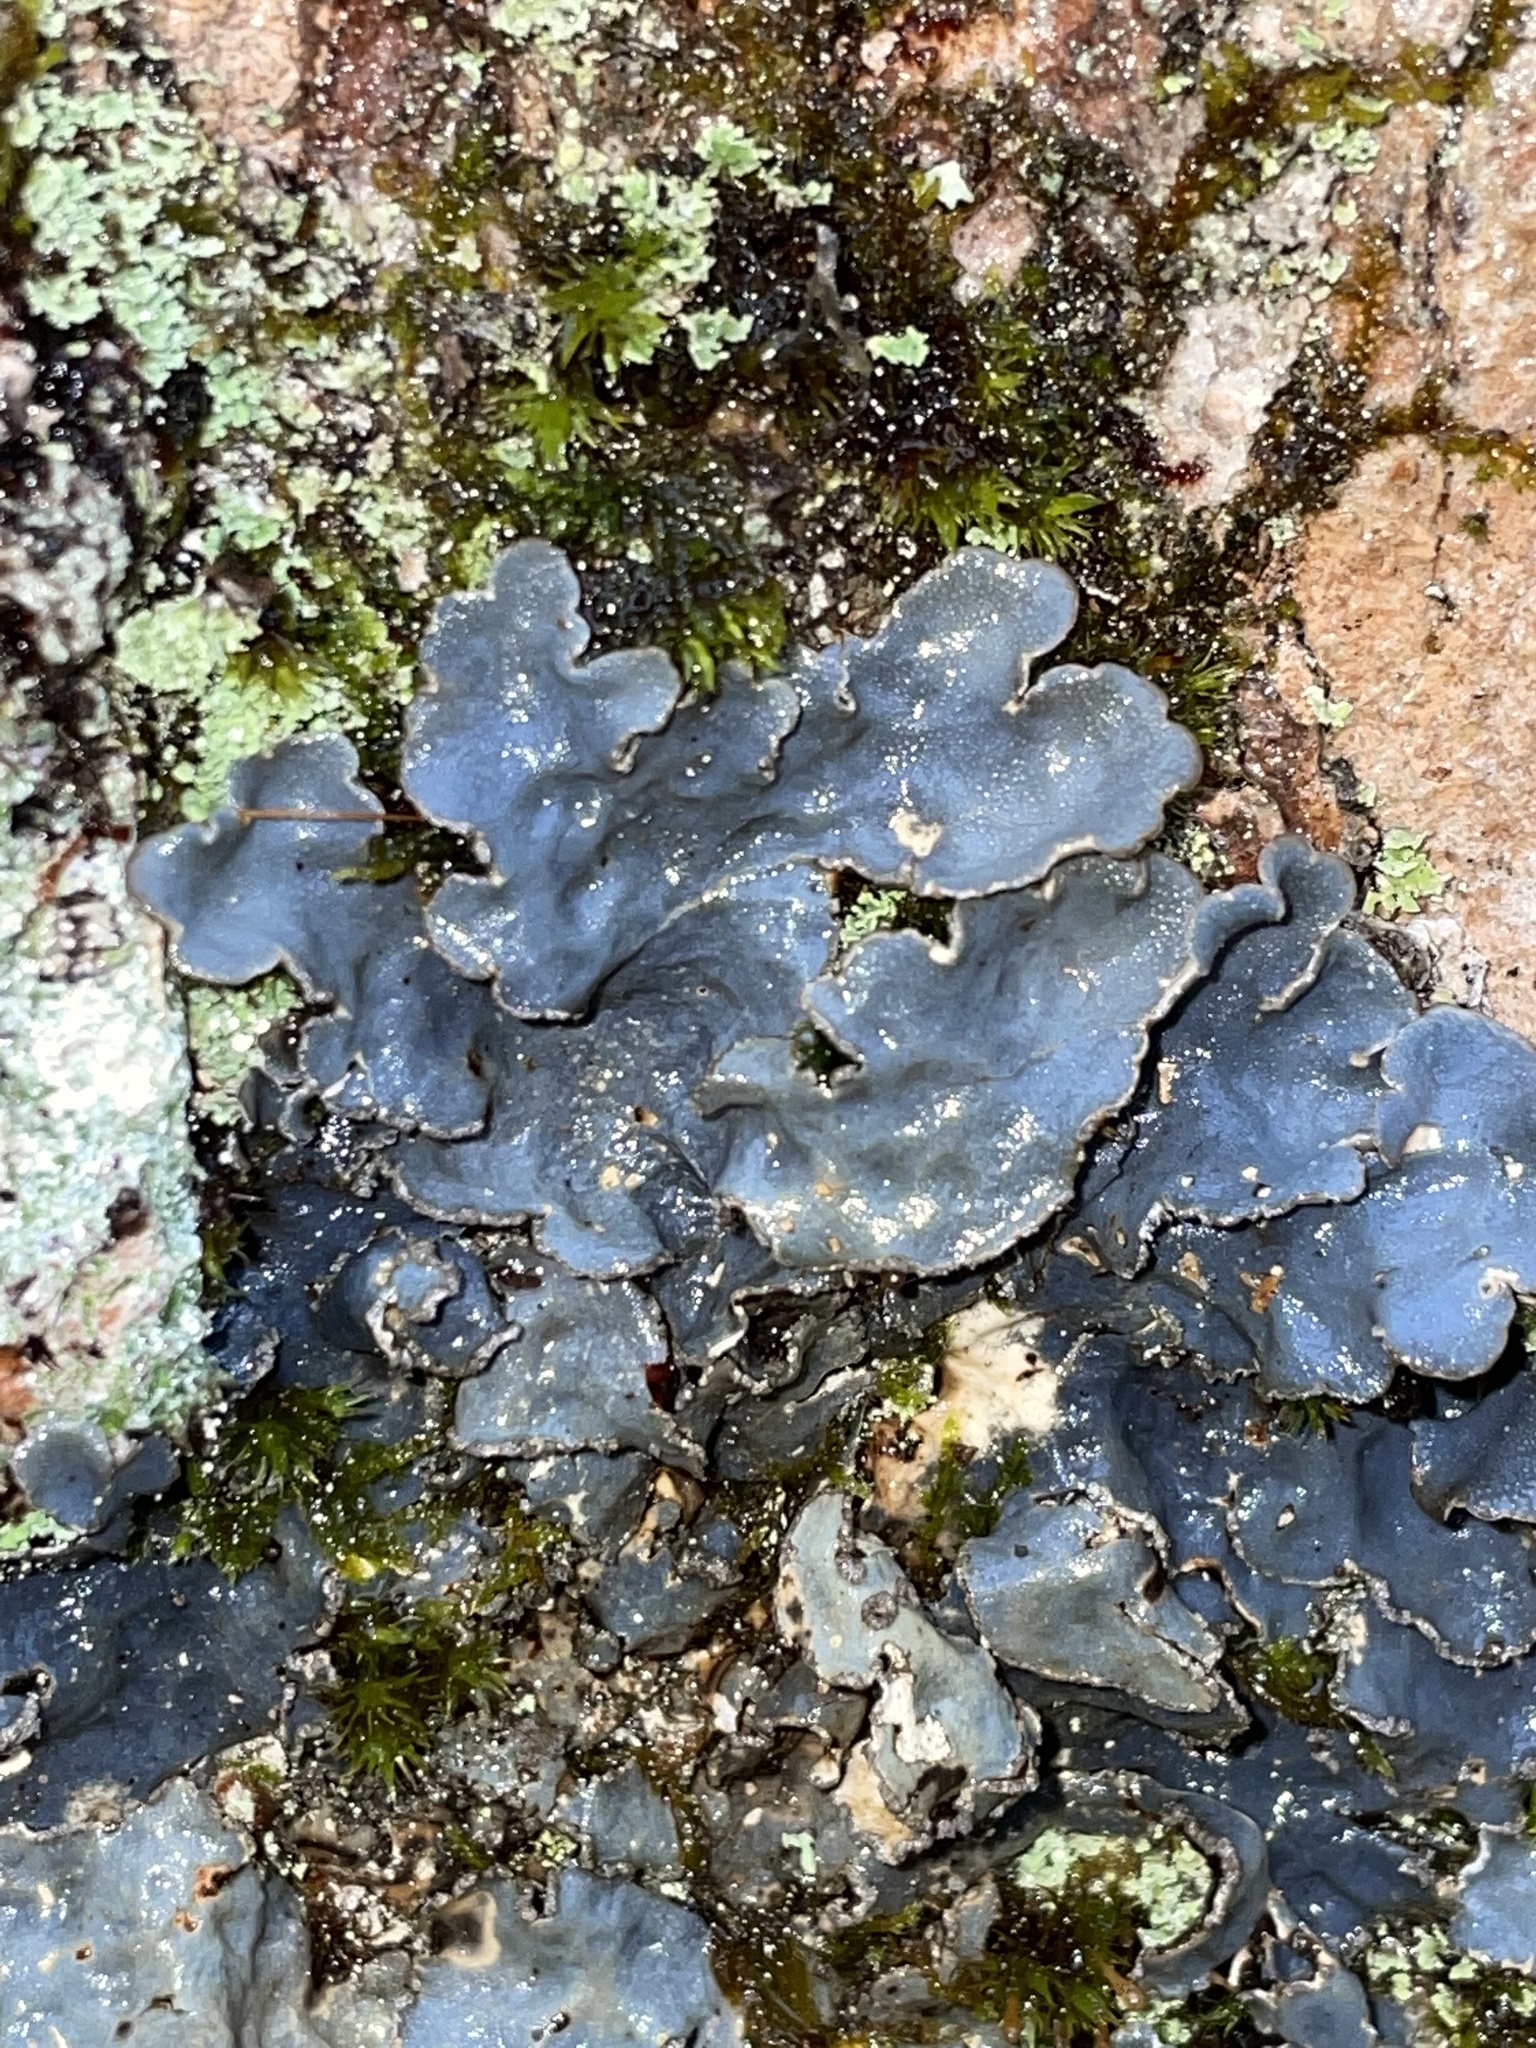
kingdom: Fungi
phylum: Ascomycota
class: Lecanoromycetes
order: Peltigerales
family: Lobariaceae
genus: Lobarina
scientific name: Lobarina scrobiculata
